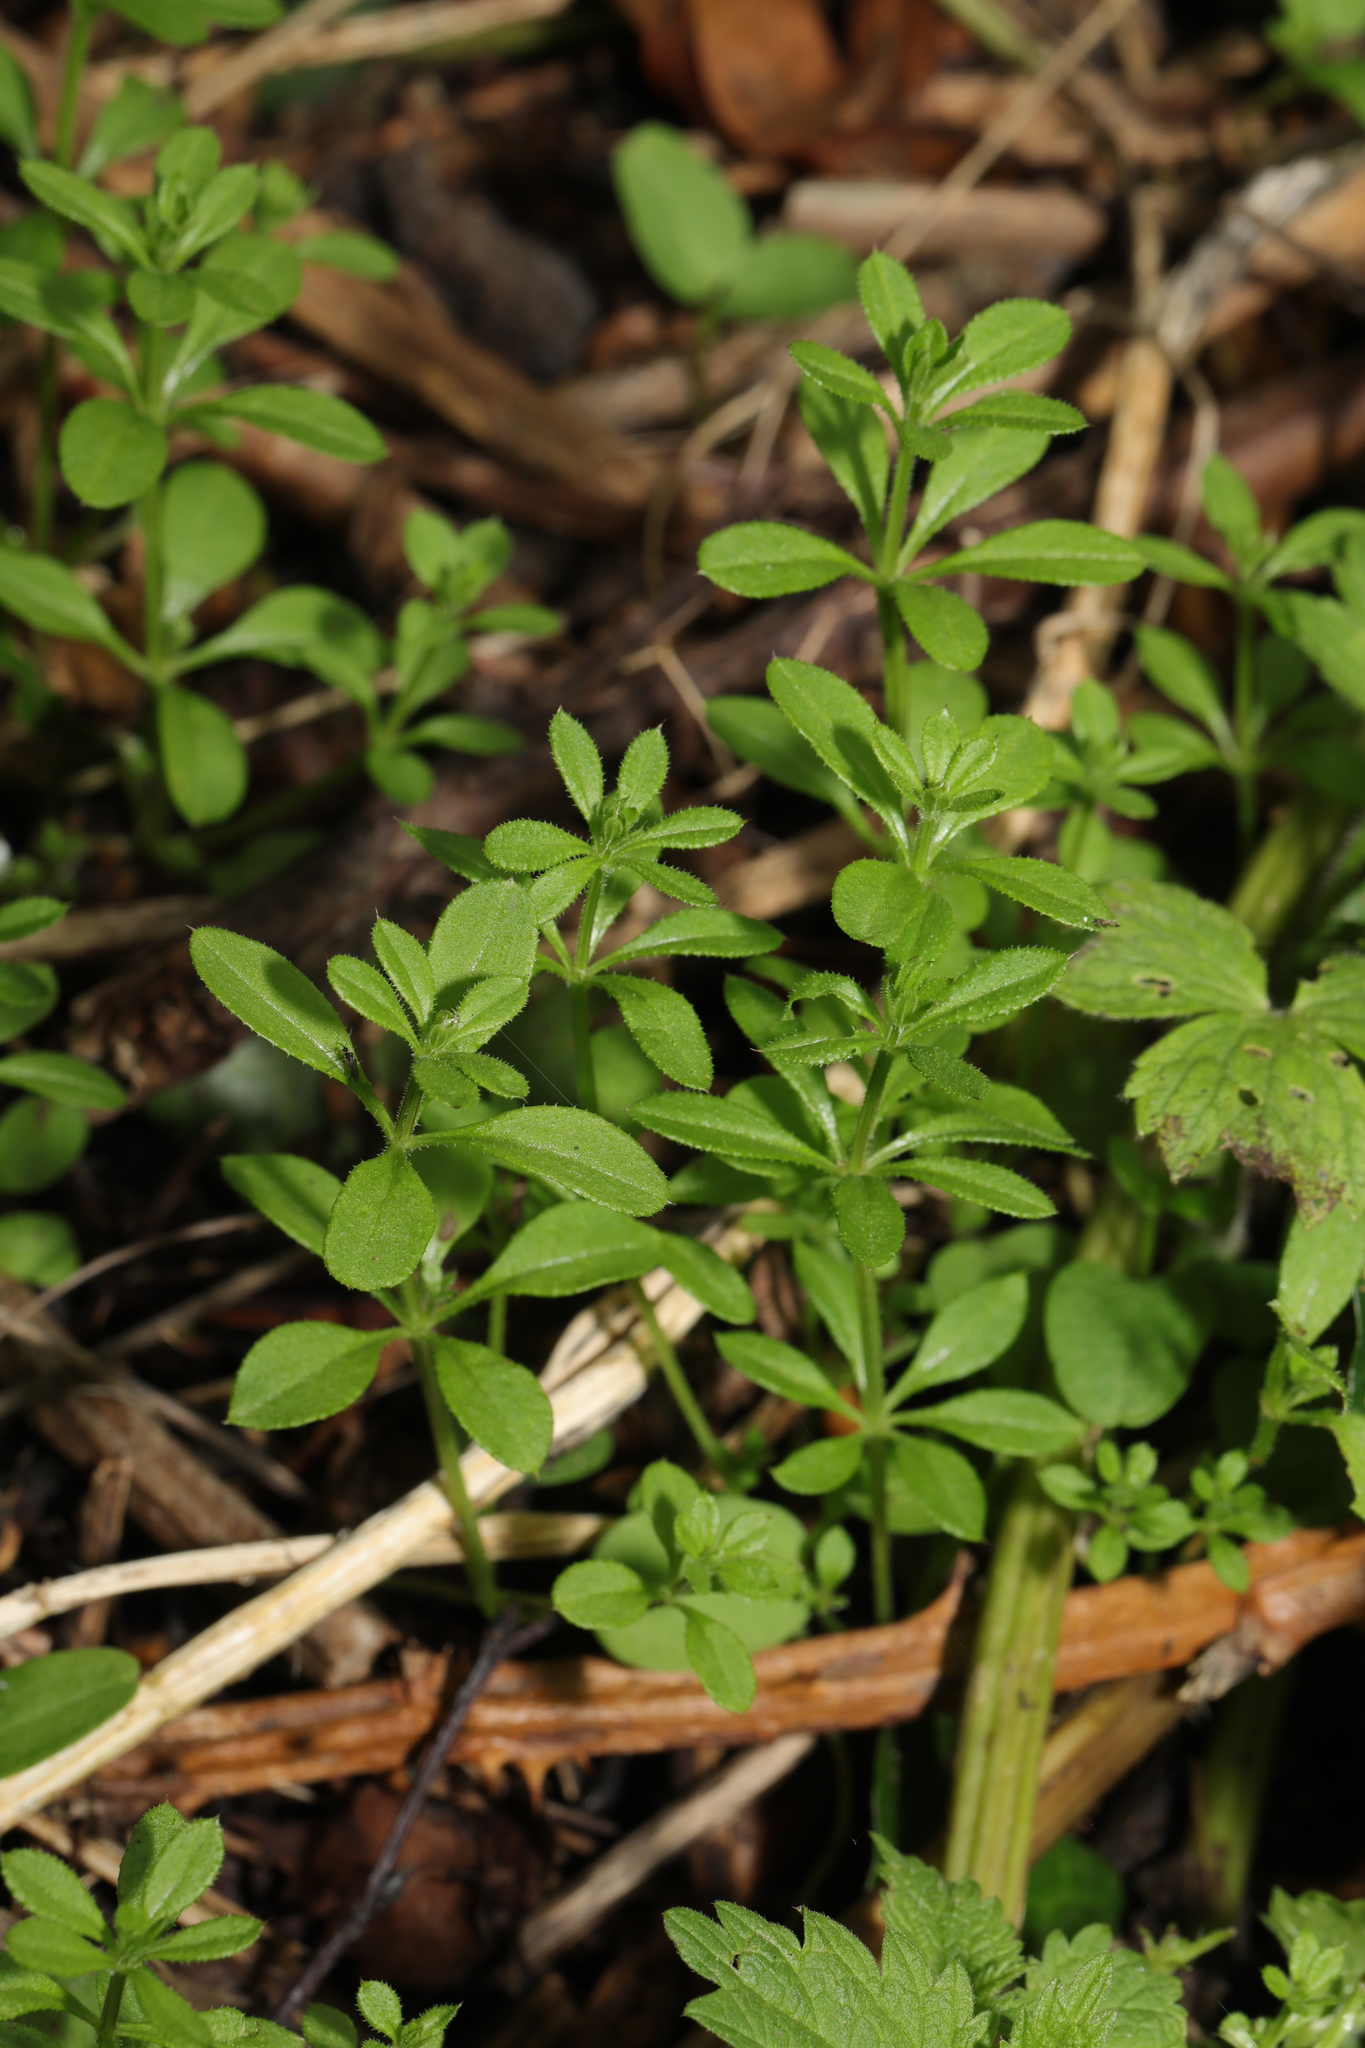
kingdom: Plantae
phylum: Tracheophyta
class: Magnoliopsida
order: Gentianales
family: Rubiaceae
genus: Galium
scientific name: Galium aparine
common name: Cleavers
